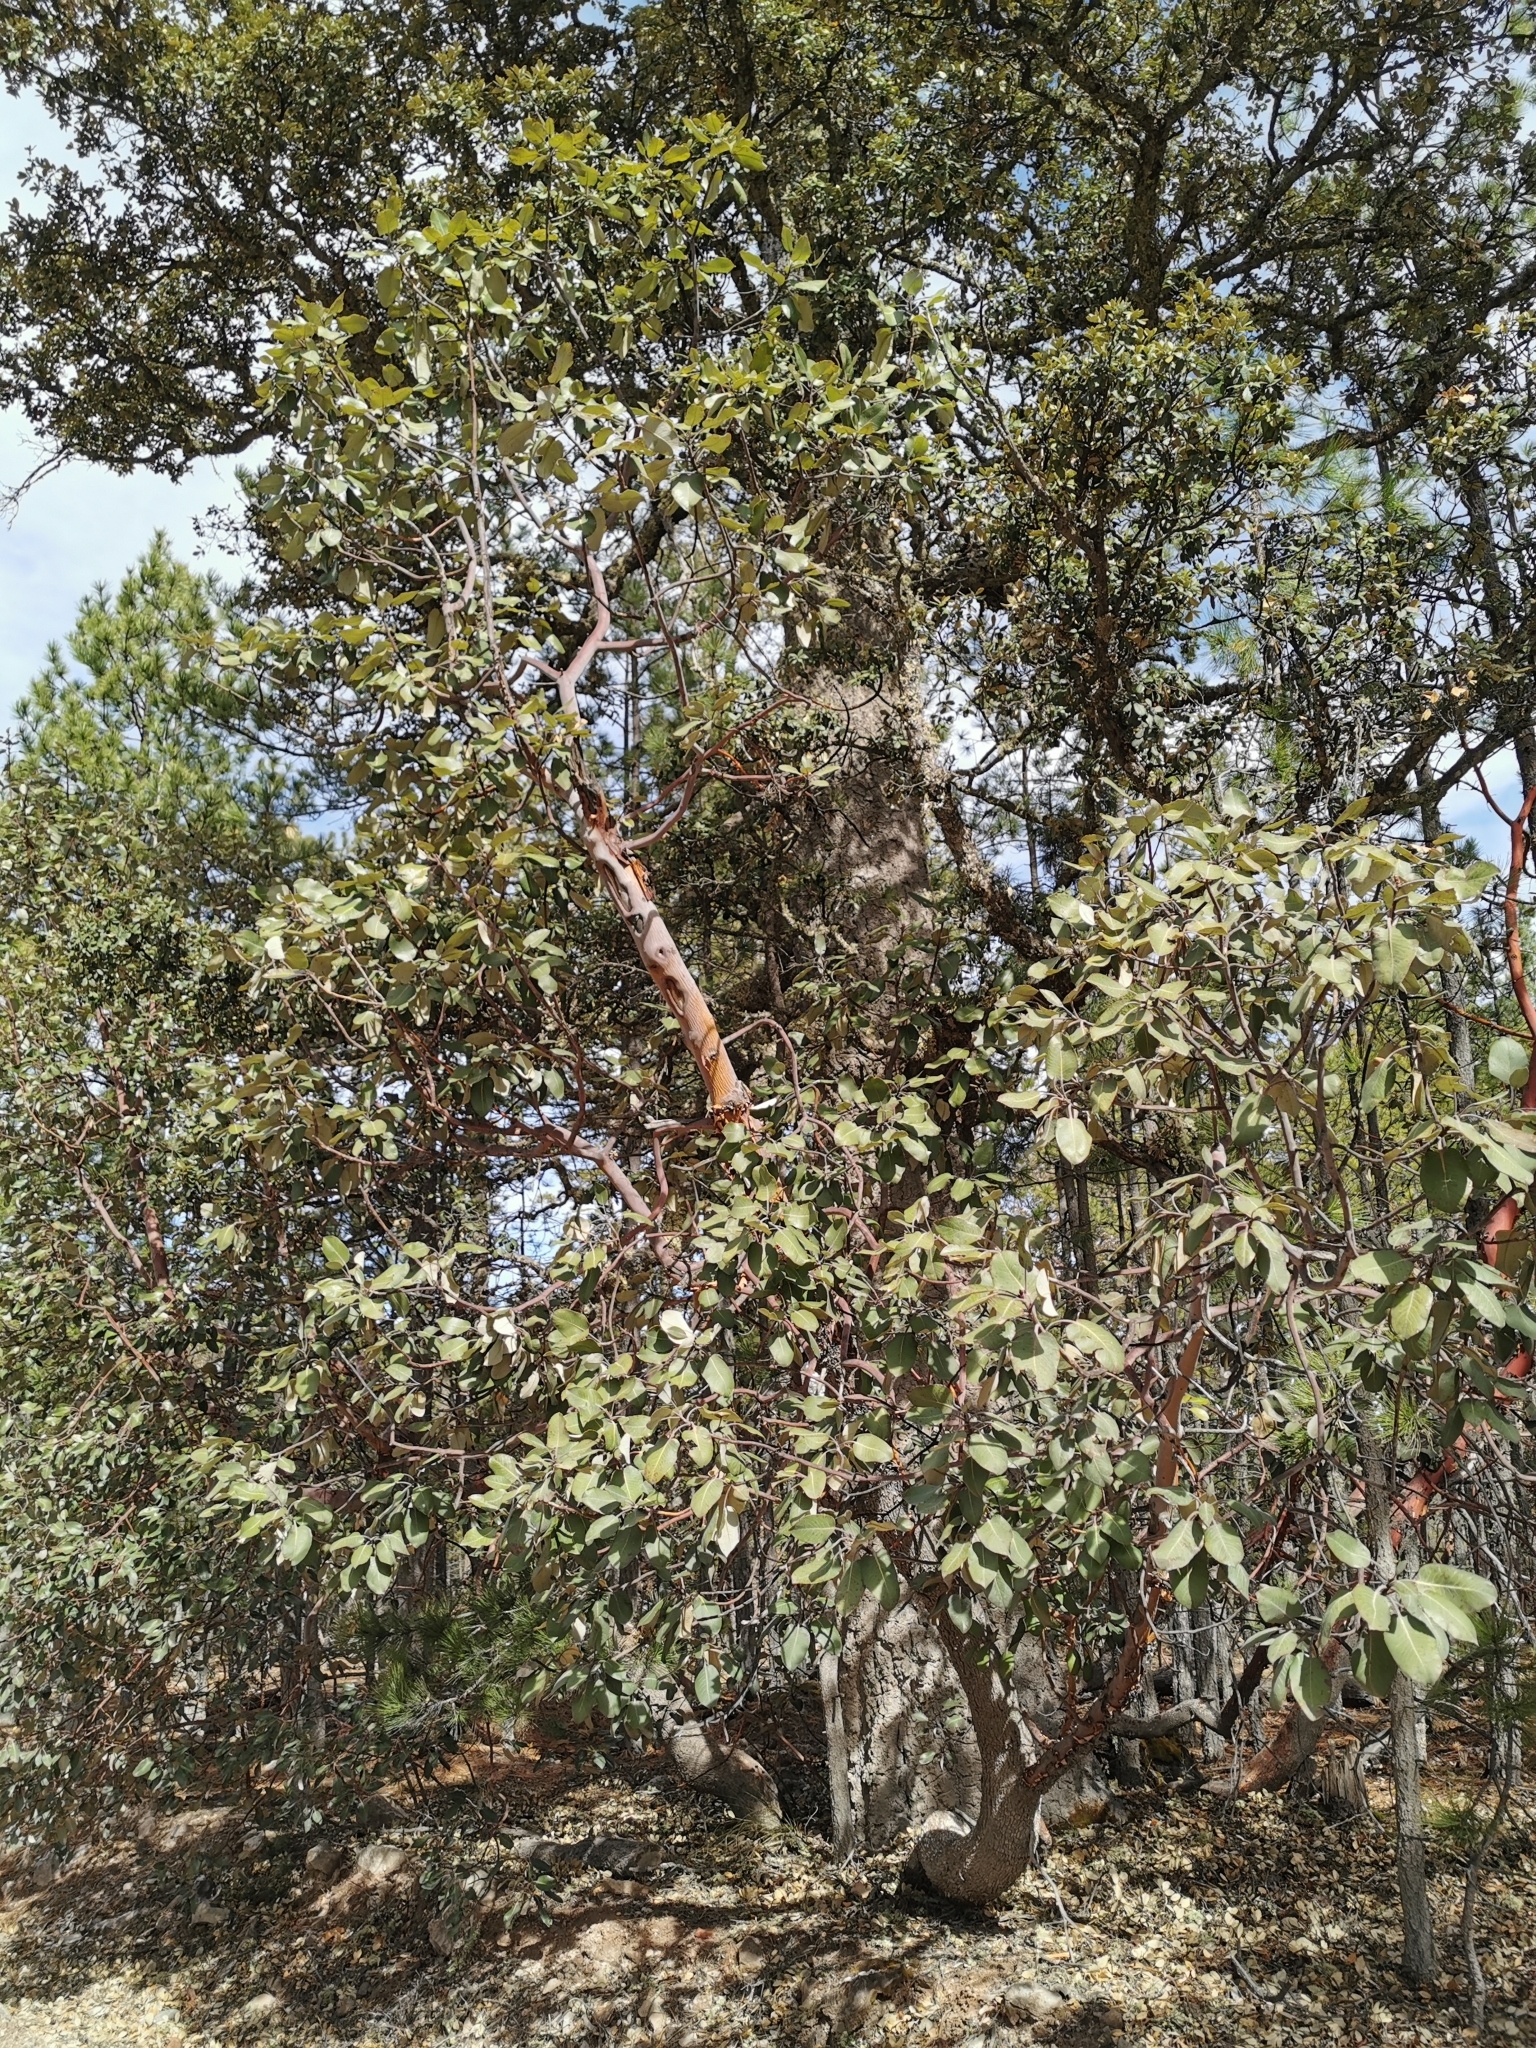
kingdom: Plantae
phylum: Tracheophyta
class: Magnoliopsida
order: Ericales
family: Ericaceae
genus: Arbutus
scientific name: Arbutus bicolor
